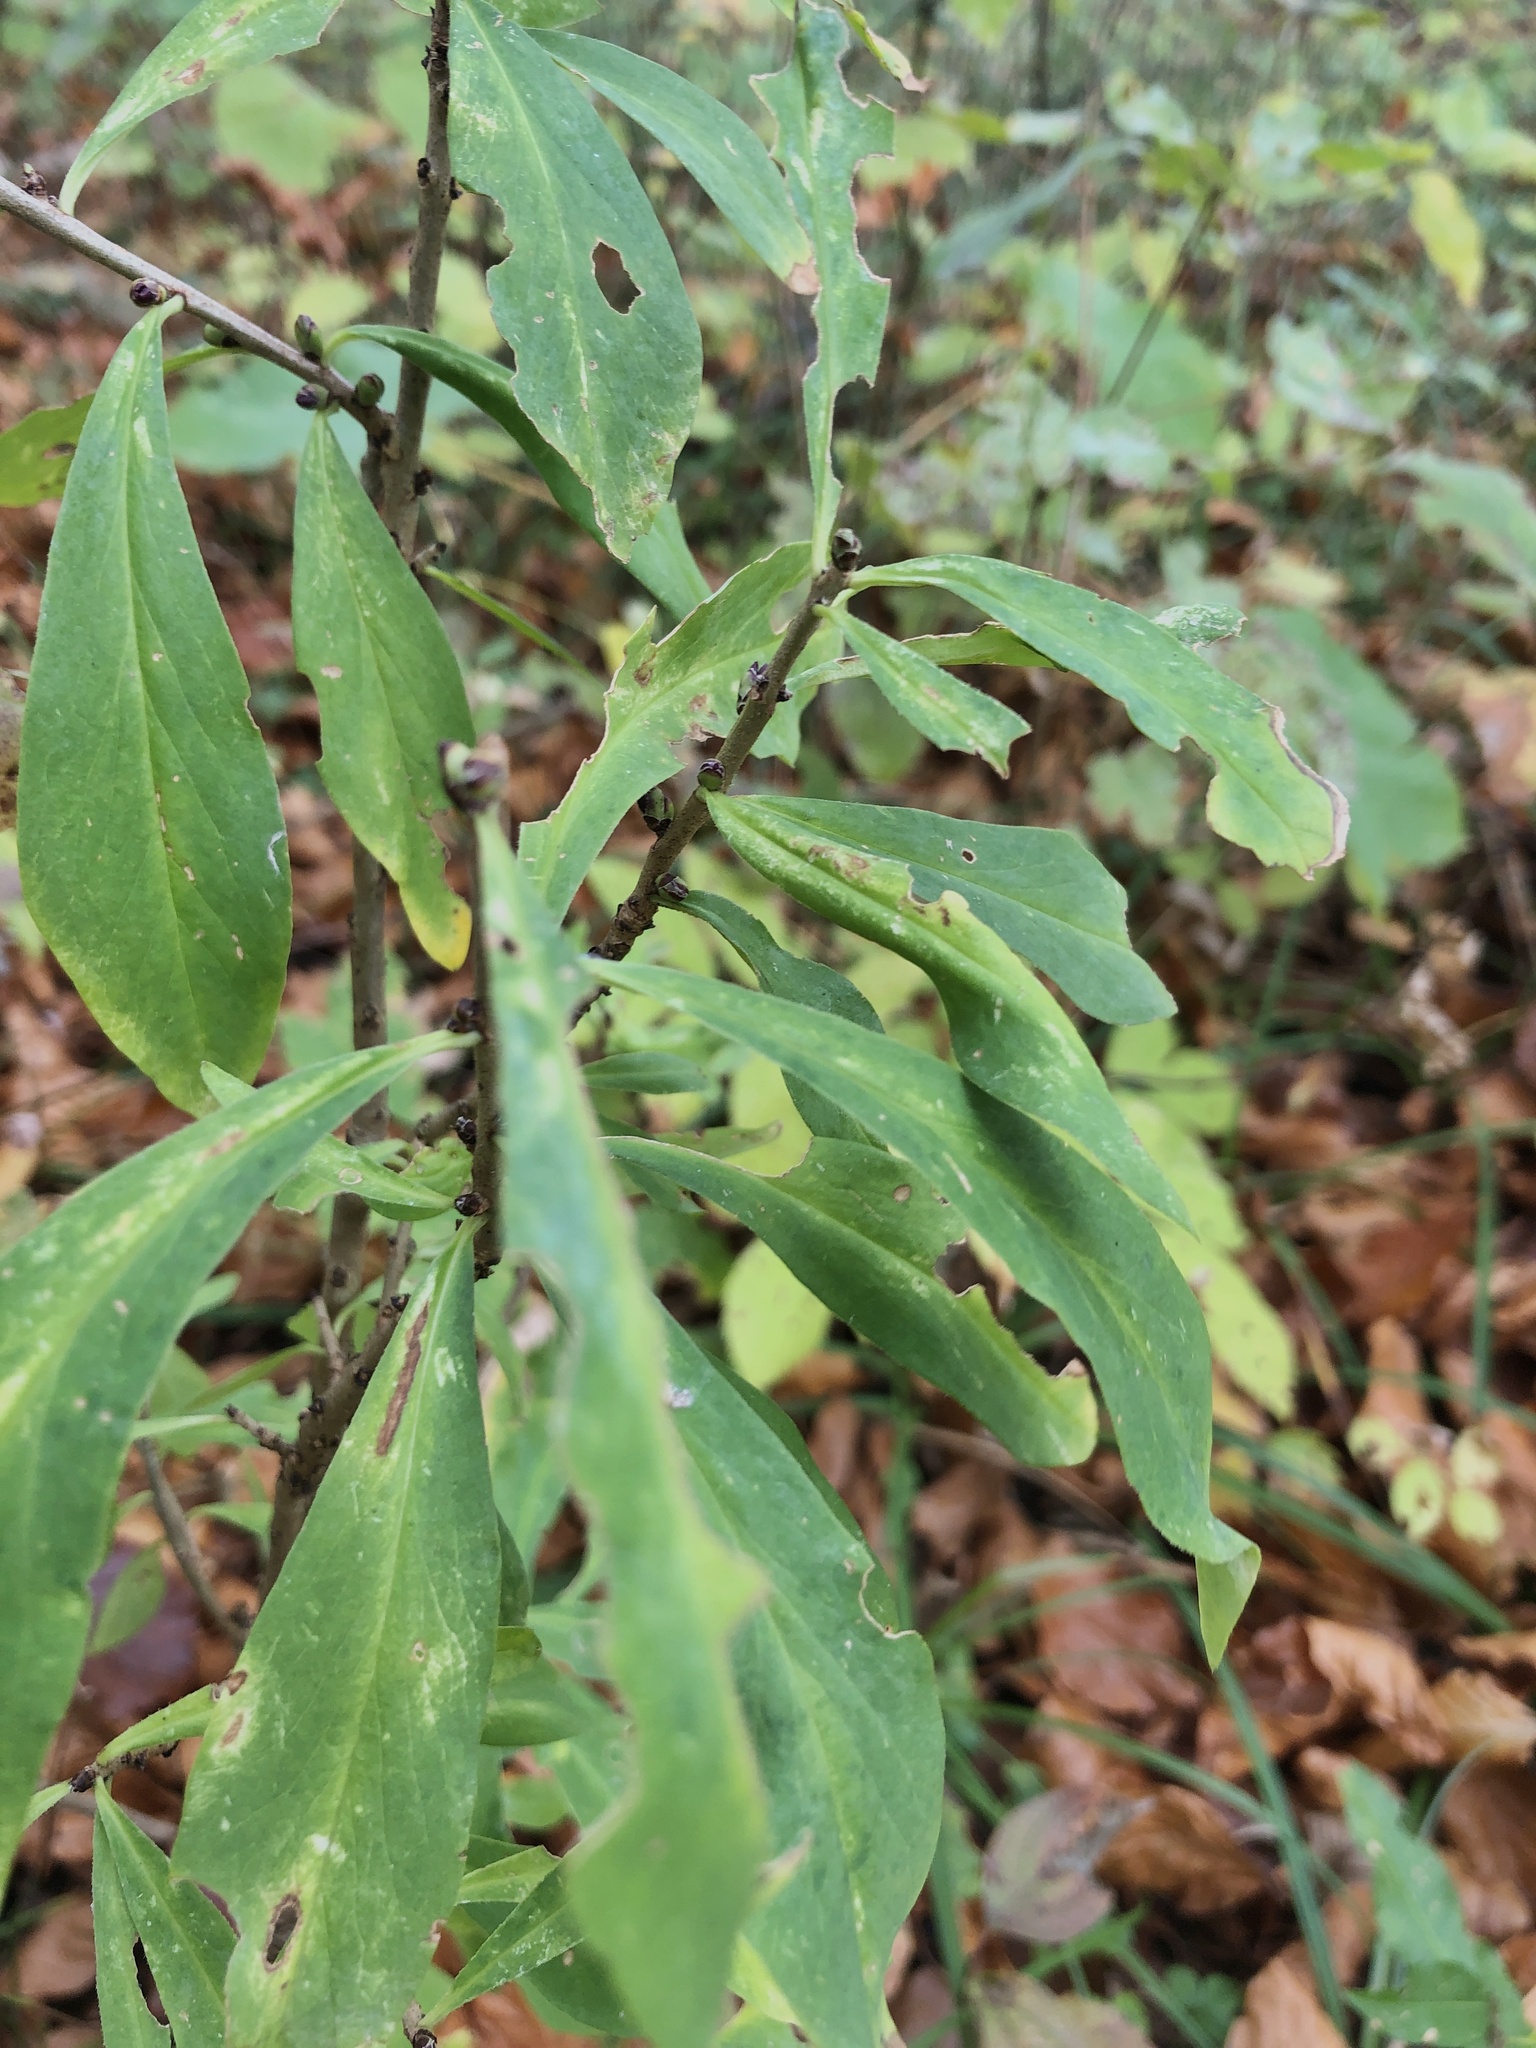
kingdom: Plantae
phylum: Tracheophyta
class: Magnoliopsida
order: Malvales
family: Thymelaeaceae
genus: Daphne
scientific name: Daphne mezereum
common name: Mezereon
